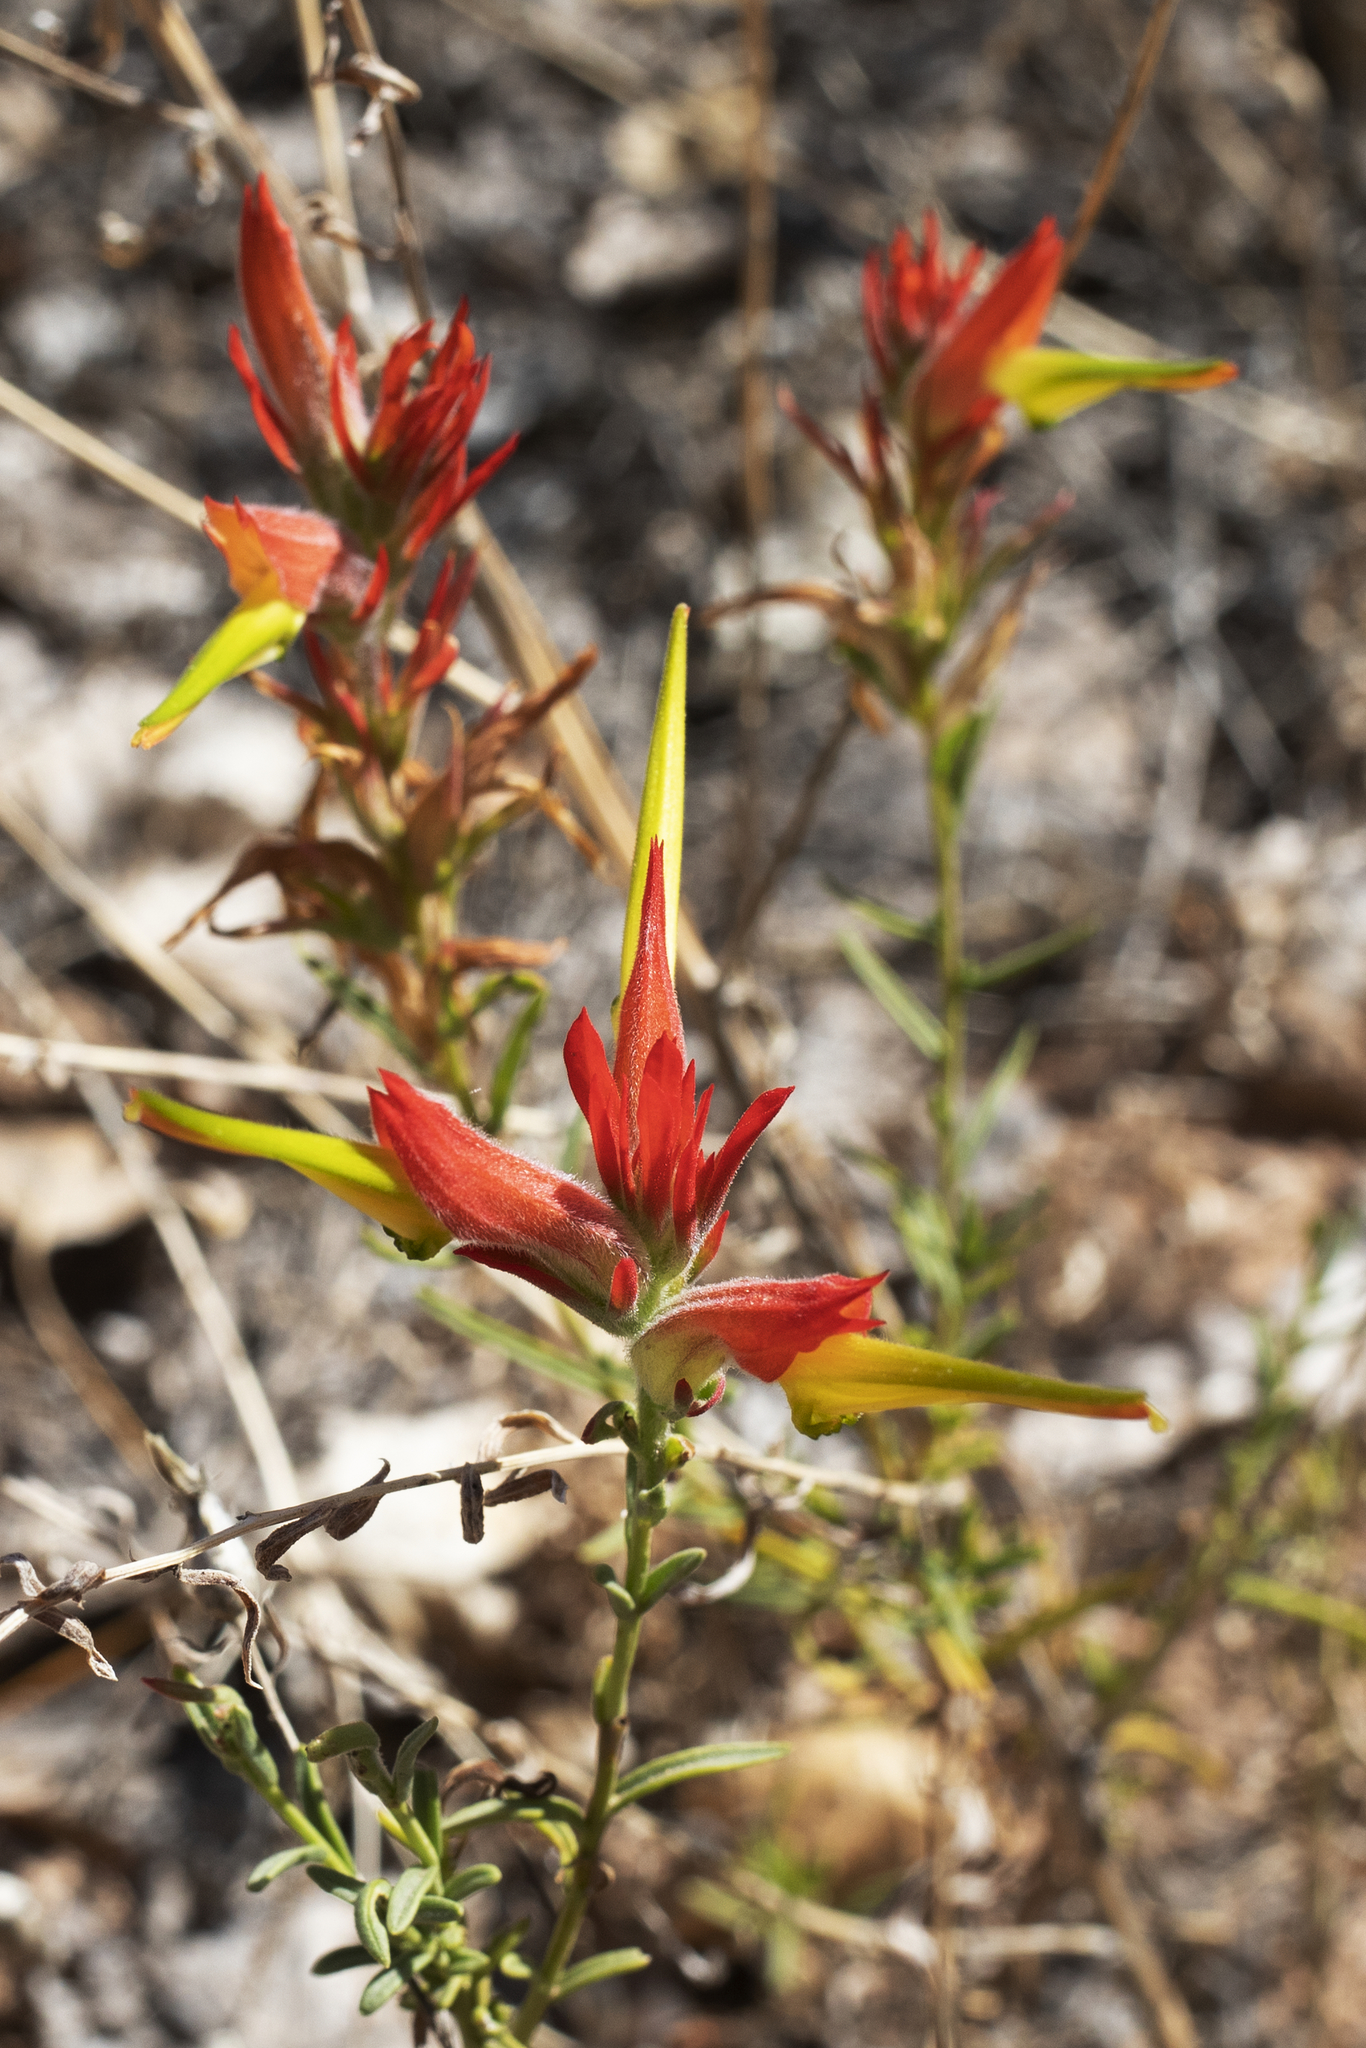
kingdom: Plantae
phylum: Tracheophyta
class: Magnoliopsida
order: Lamiales
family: Orobanchaceae
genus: Castilleja
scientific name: Castilleja linariifolia
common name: Wyoming paintbrush
